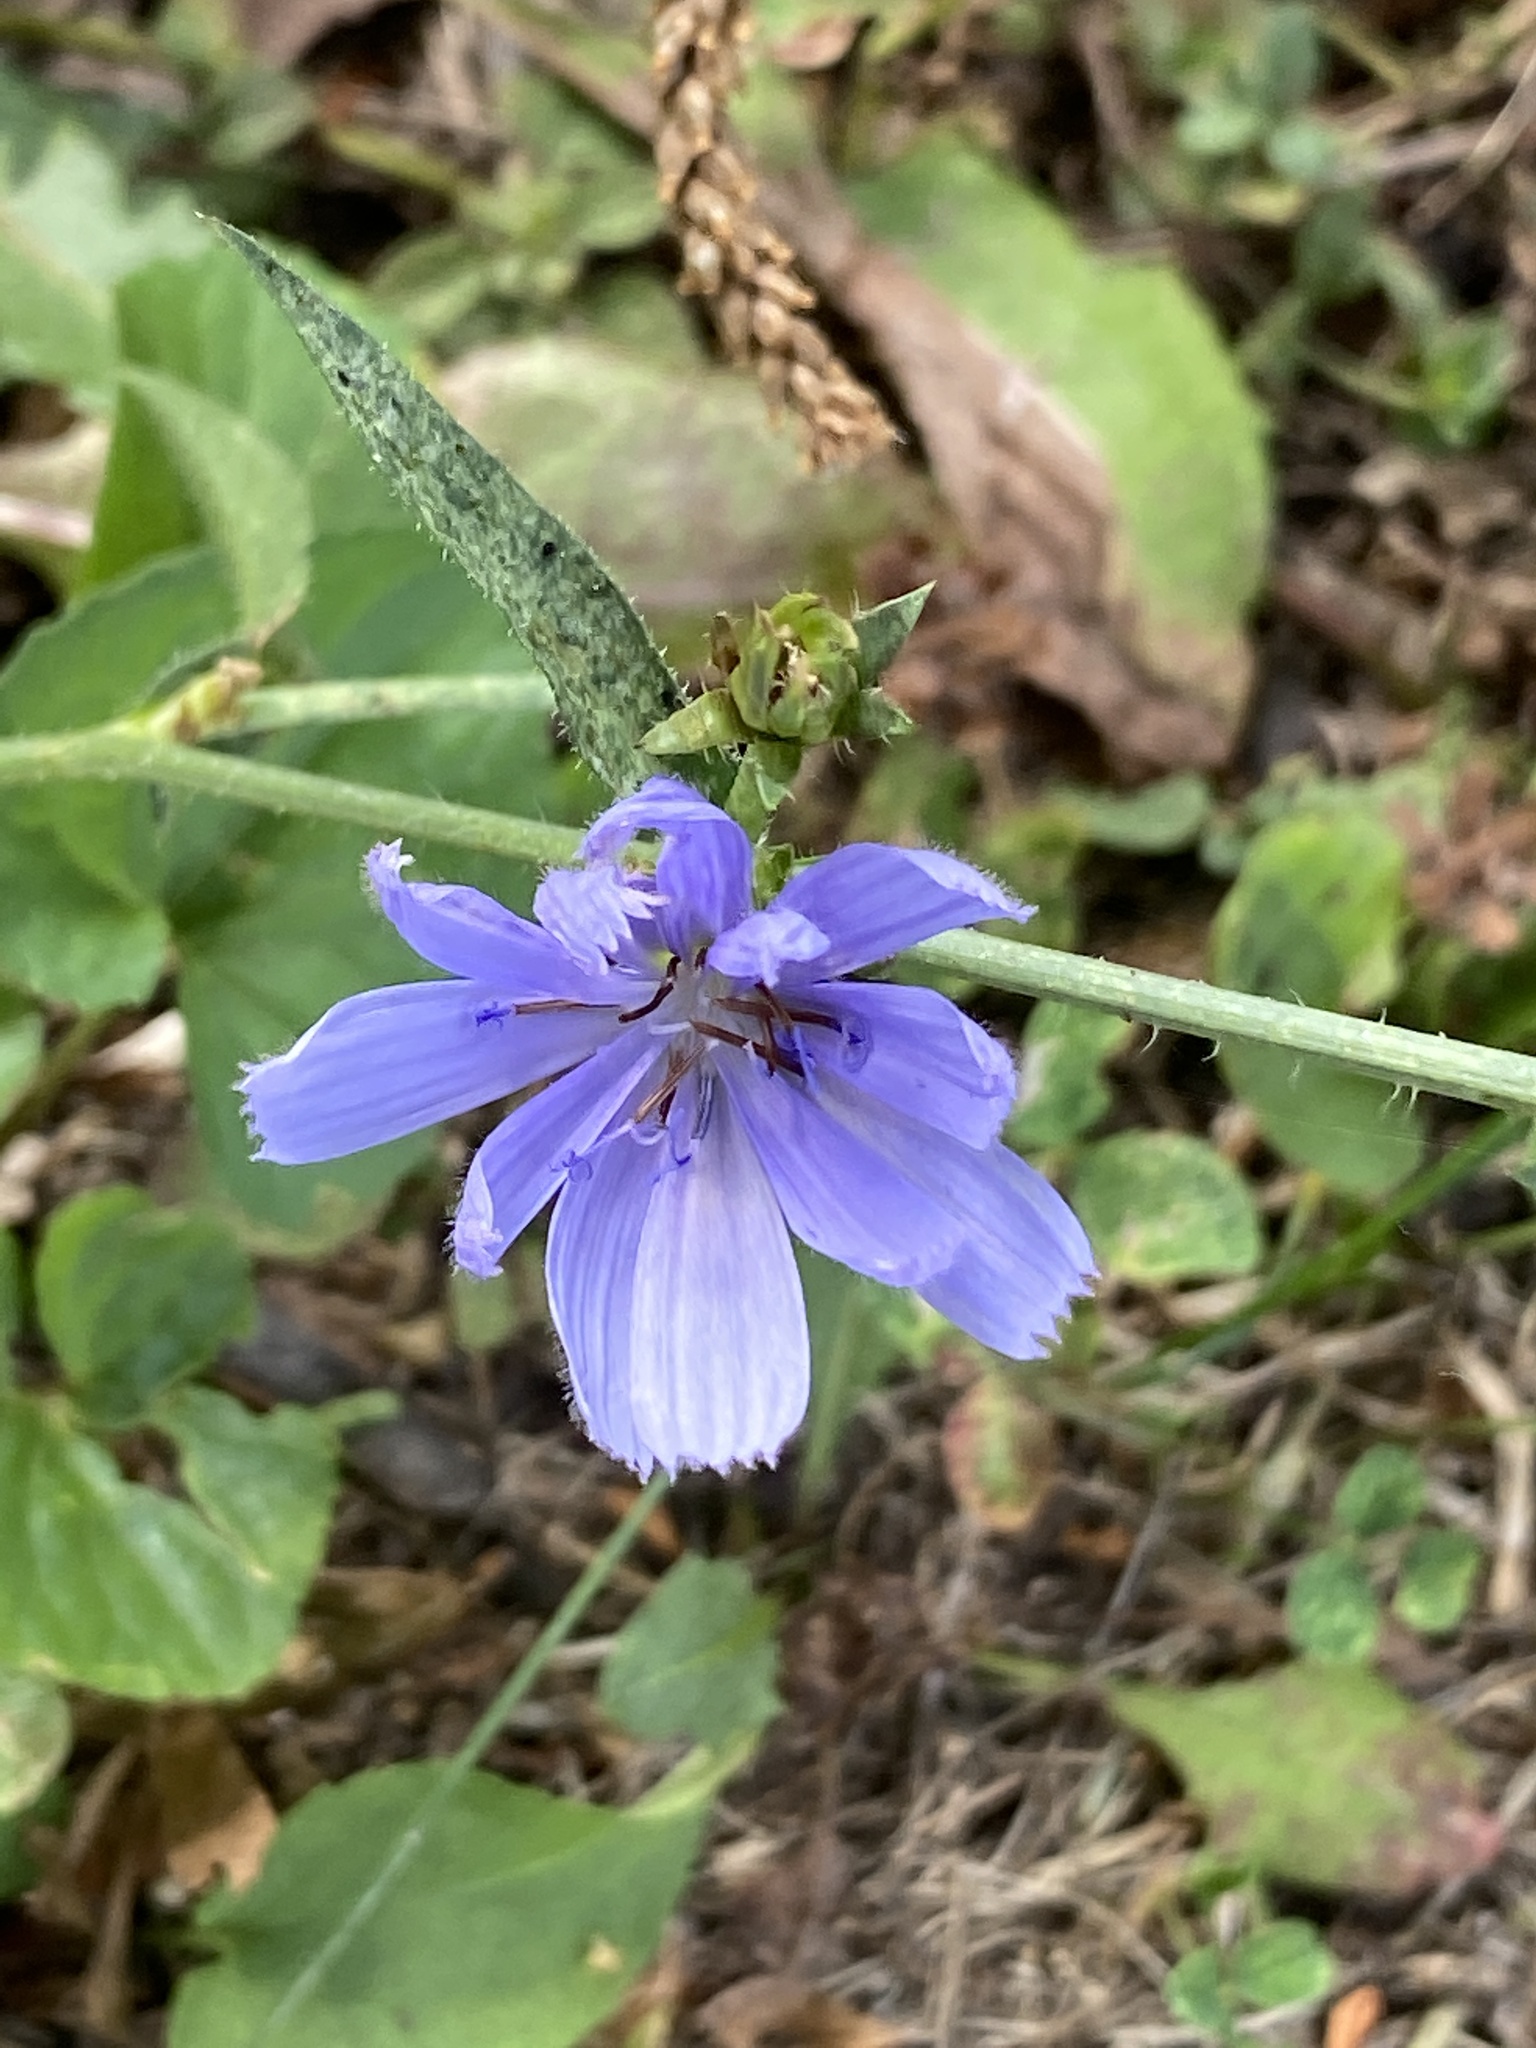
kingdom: Plantae
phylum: Tracheophyta
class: Magnoliopsida
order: Asterales
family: Asteraceae
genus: Cichorium
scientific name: Cichorium intybus
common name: Chicory
